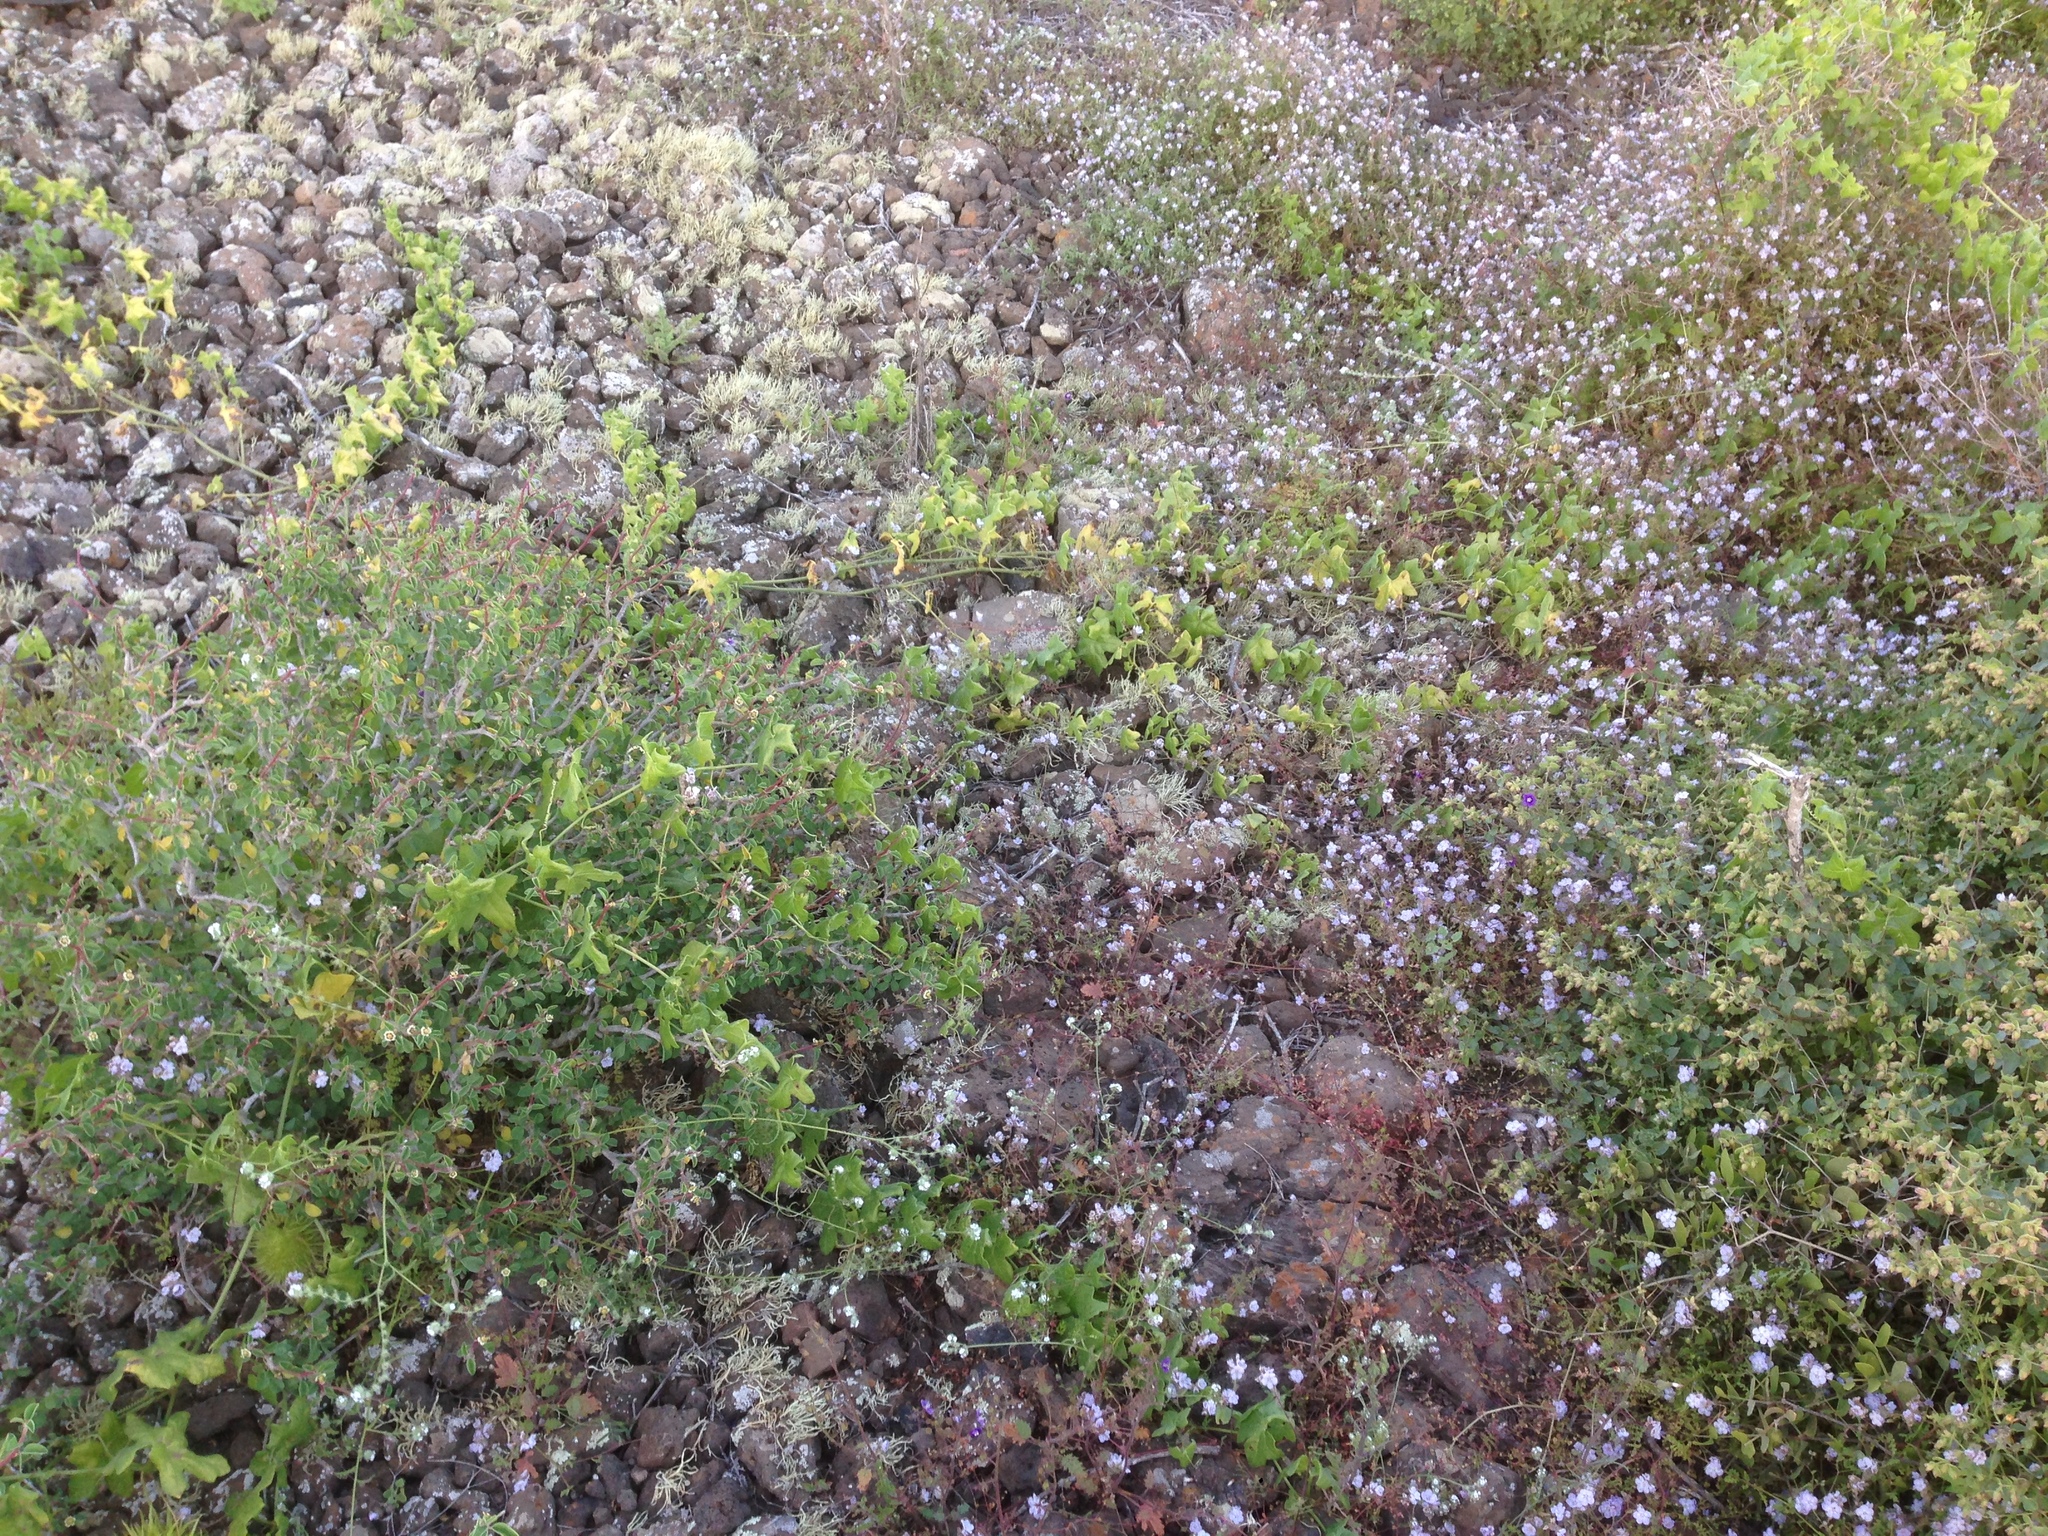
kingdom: Plantae
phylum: Tracheophyta
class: Magnoliopsida
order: Cucurbitales
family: Cucurbitaceae
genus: Marah
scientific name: Marah macrocarpa
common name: Cucamonga manroot
